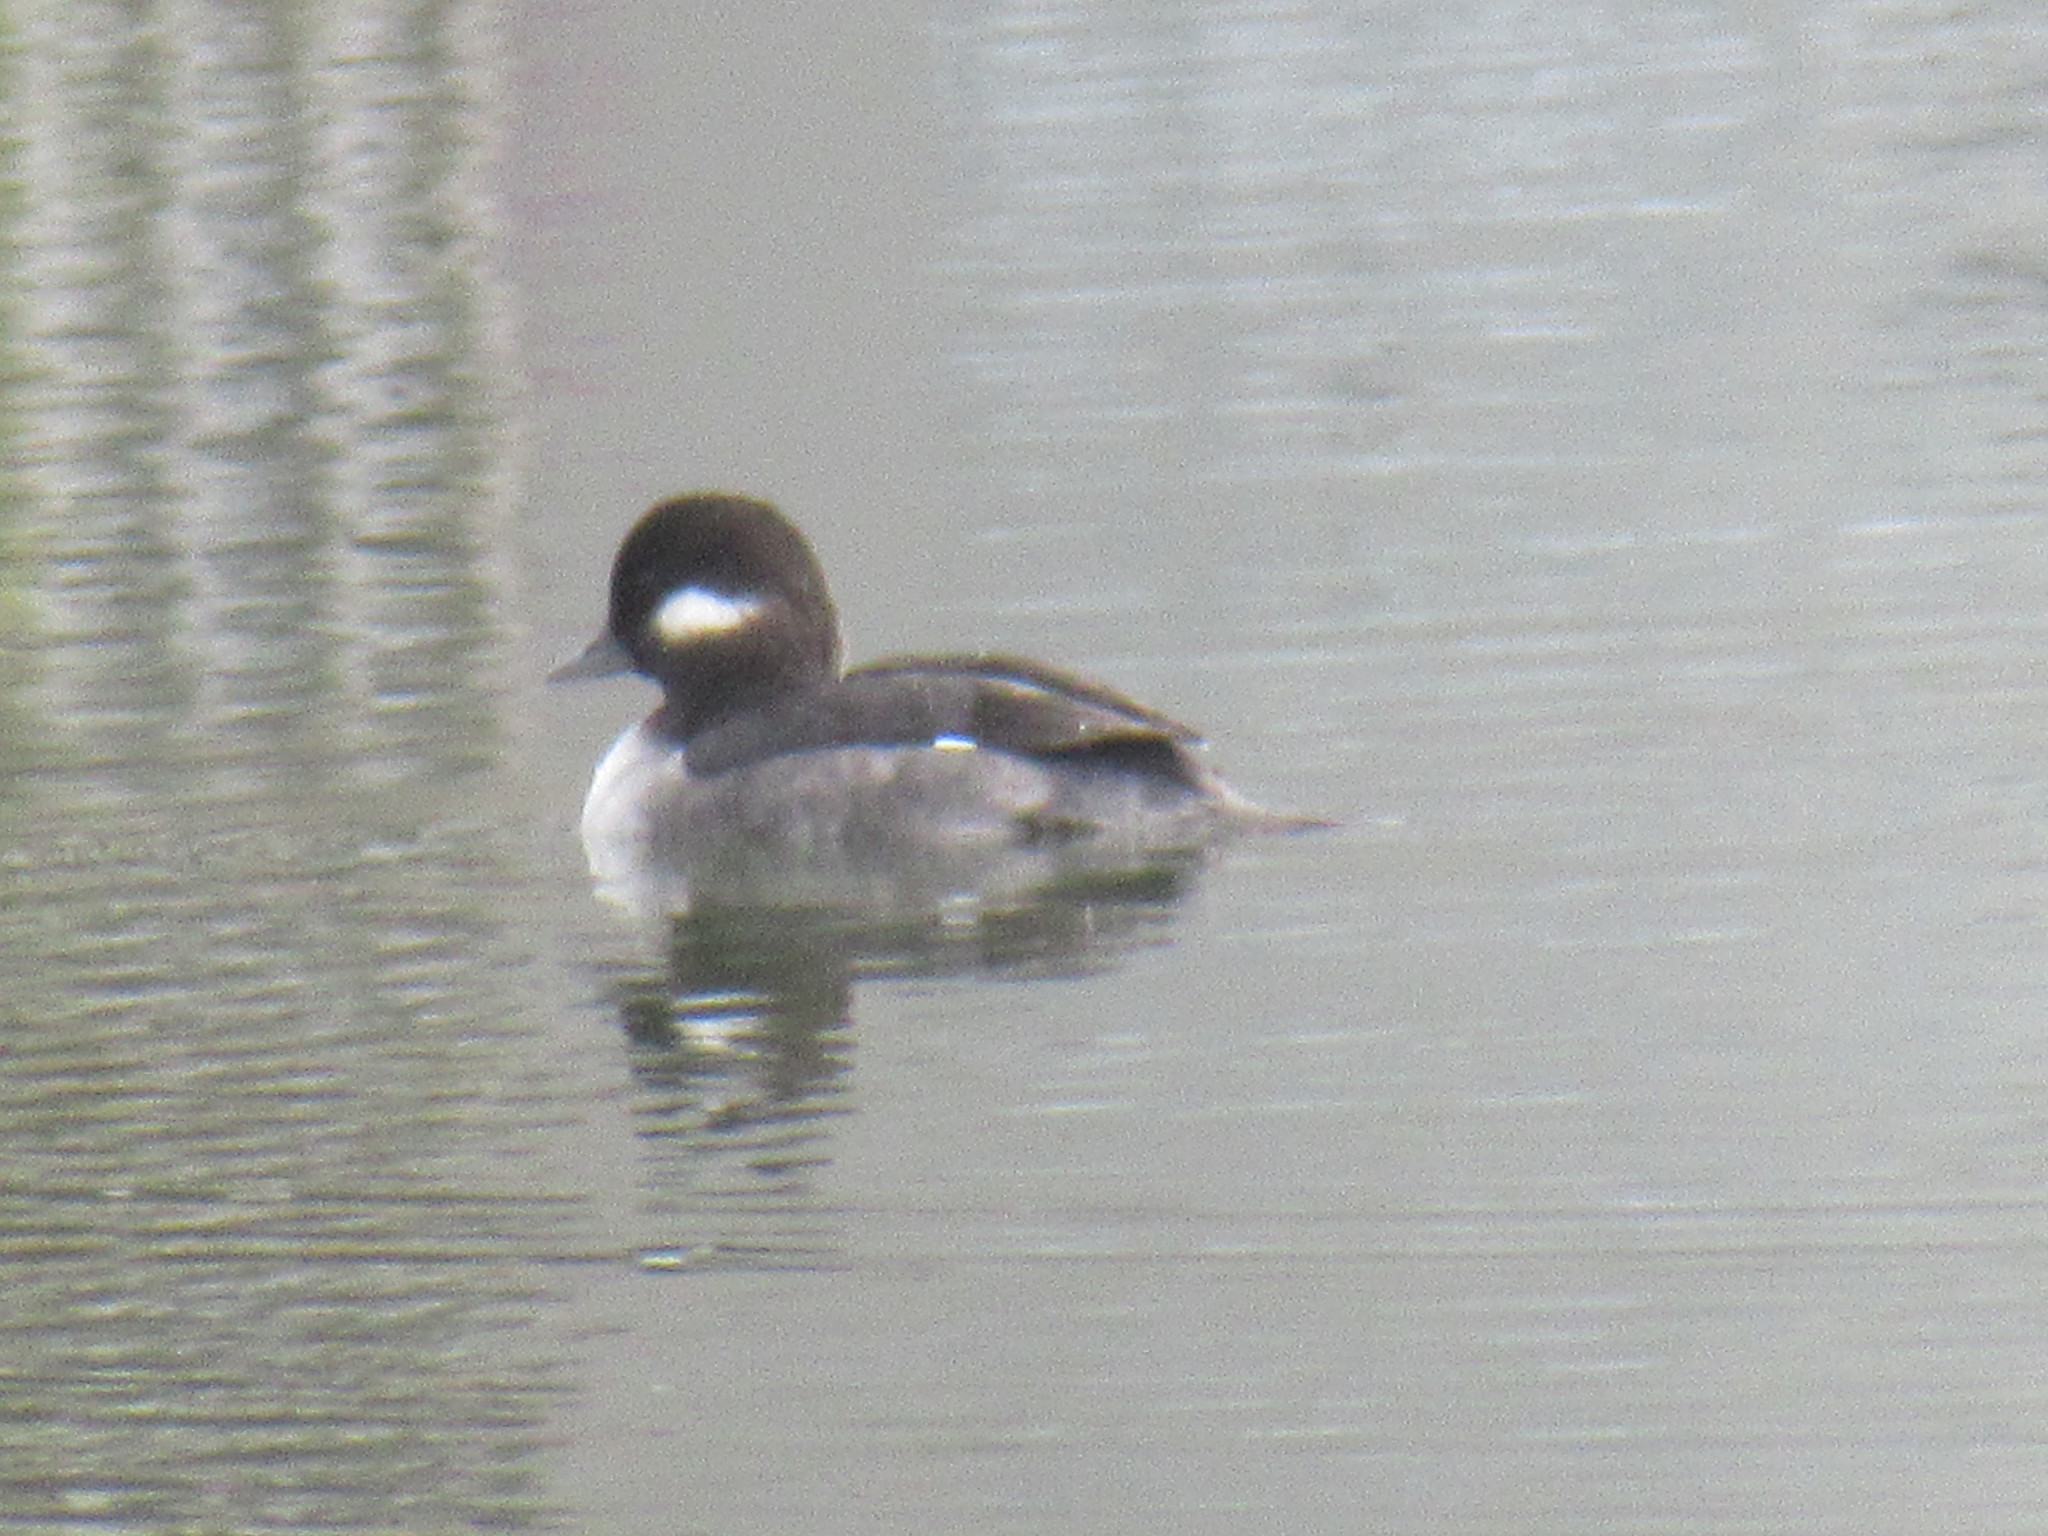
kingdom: Animalia
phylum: Chordata
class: Aves
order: Anseriformes
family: Anatidae
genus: Bucephala
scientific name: Bucephala albeola
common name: Bufflehead
